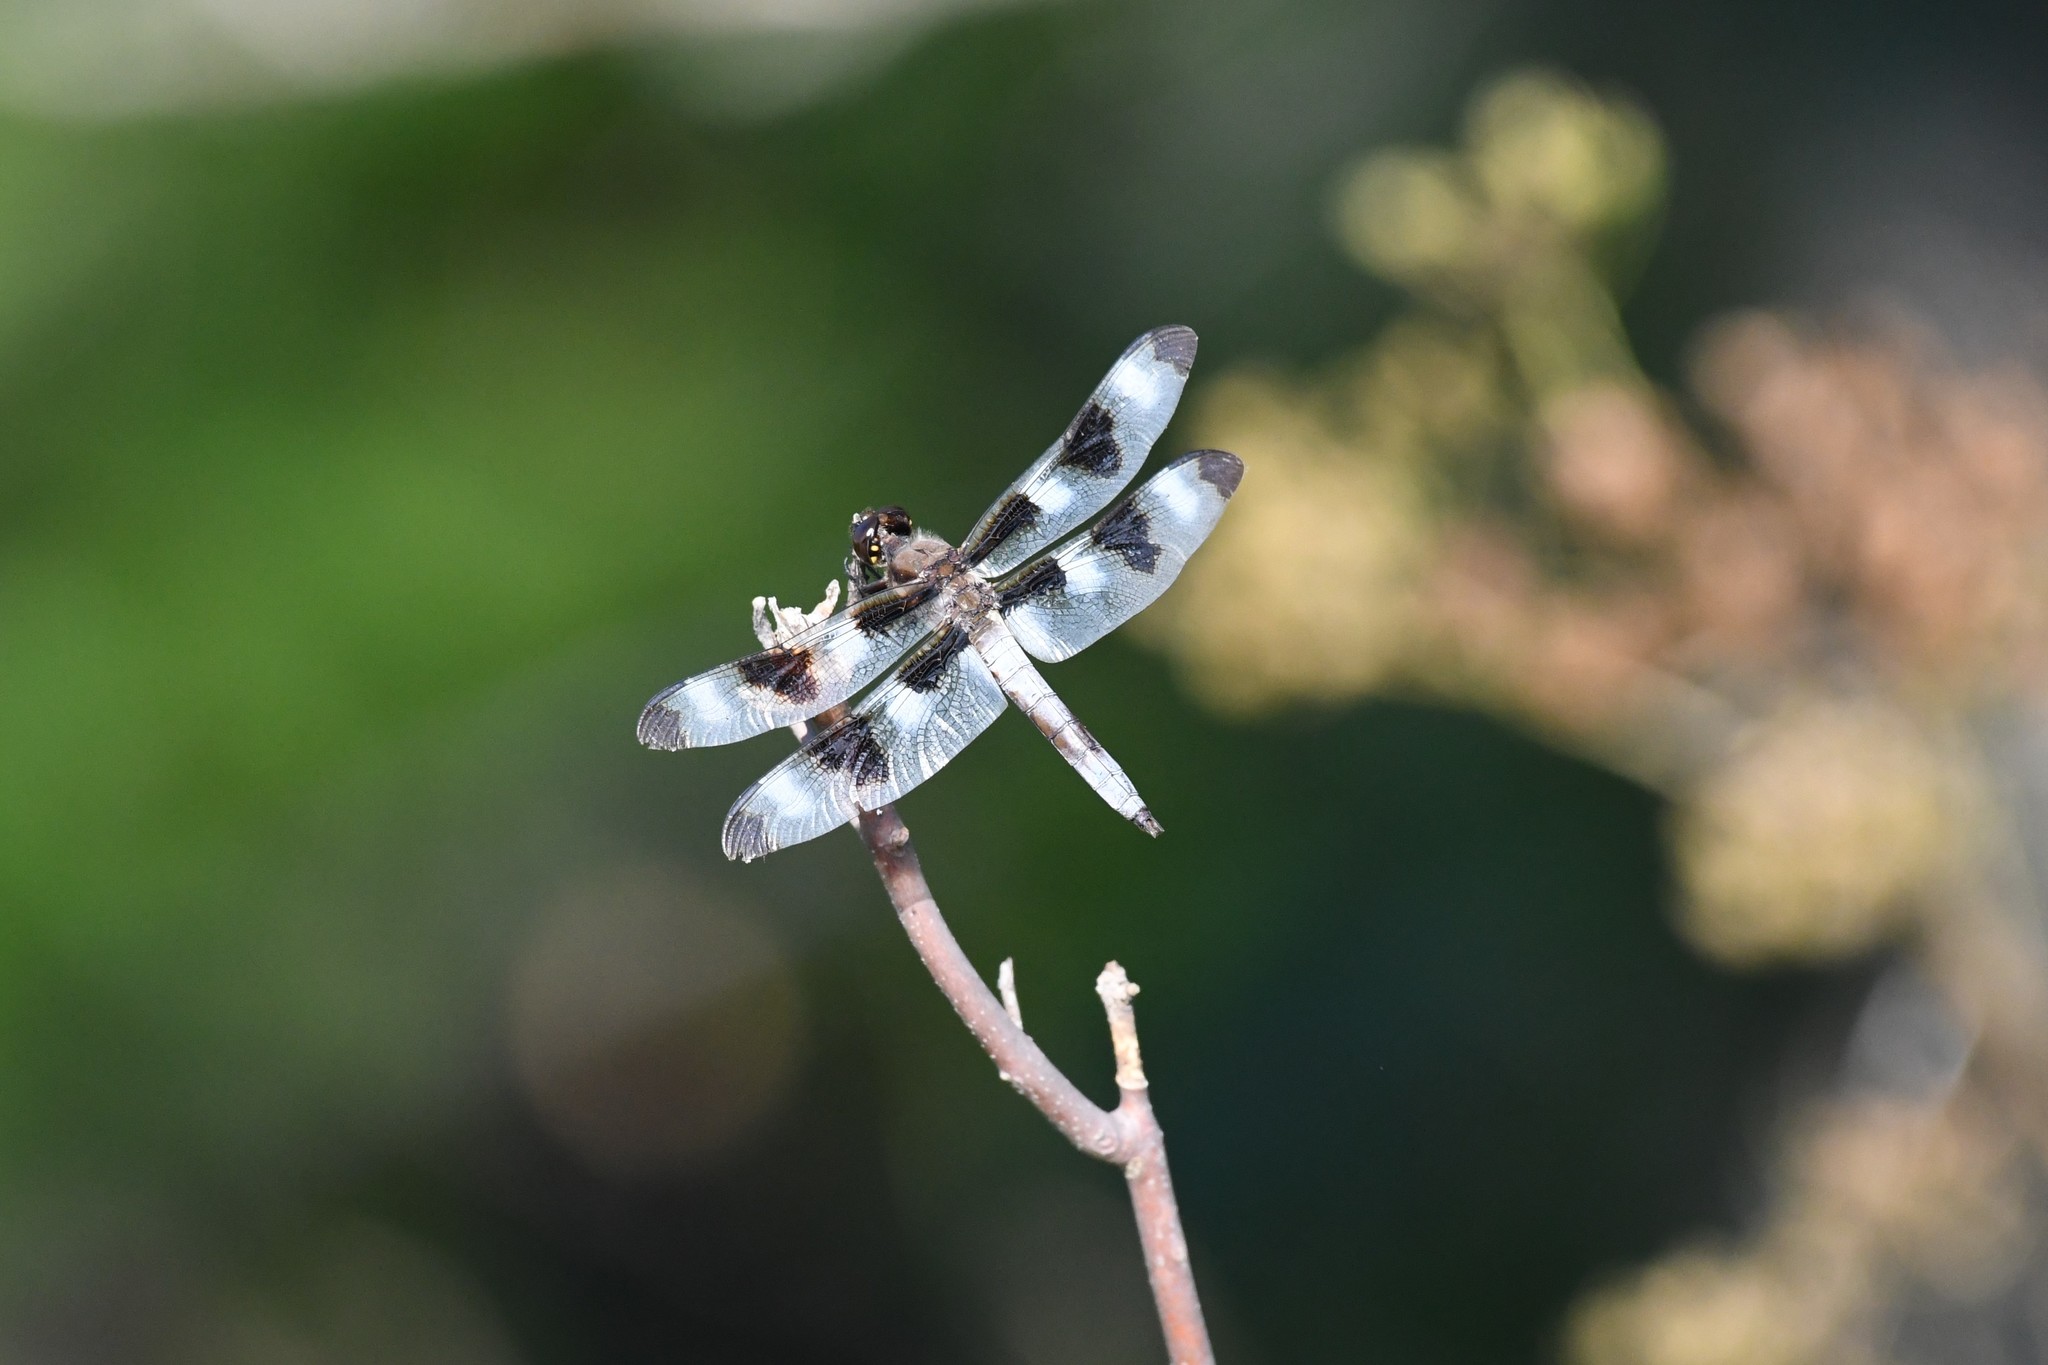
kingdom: Animalia
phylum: Arthropoda
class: Insecta
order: Odonata
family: Libellulidae
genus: Libellula
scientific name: Libellula pulchella
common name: Twelve-spotted skimmer
